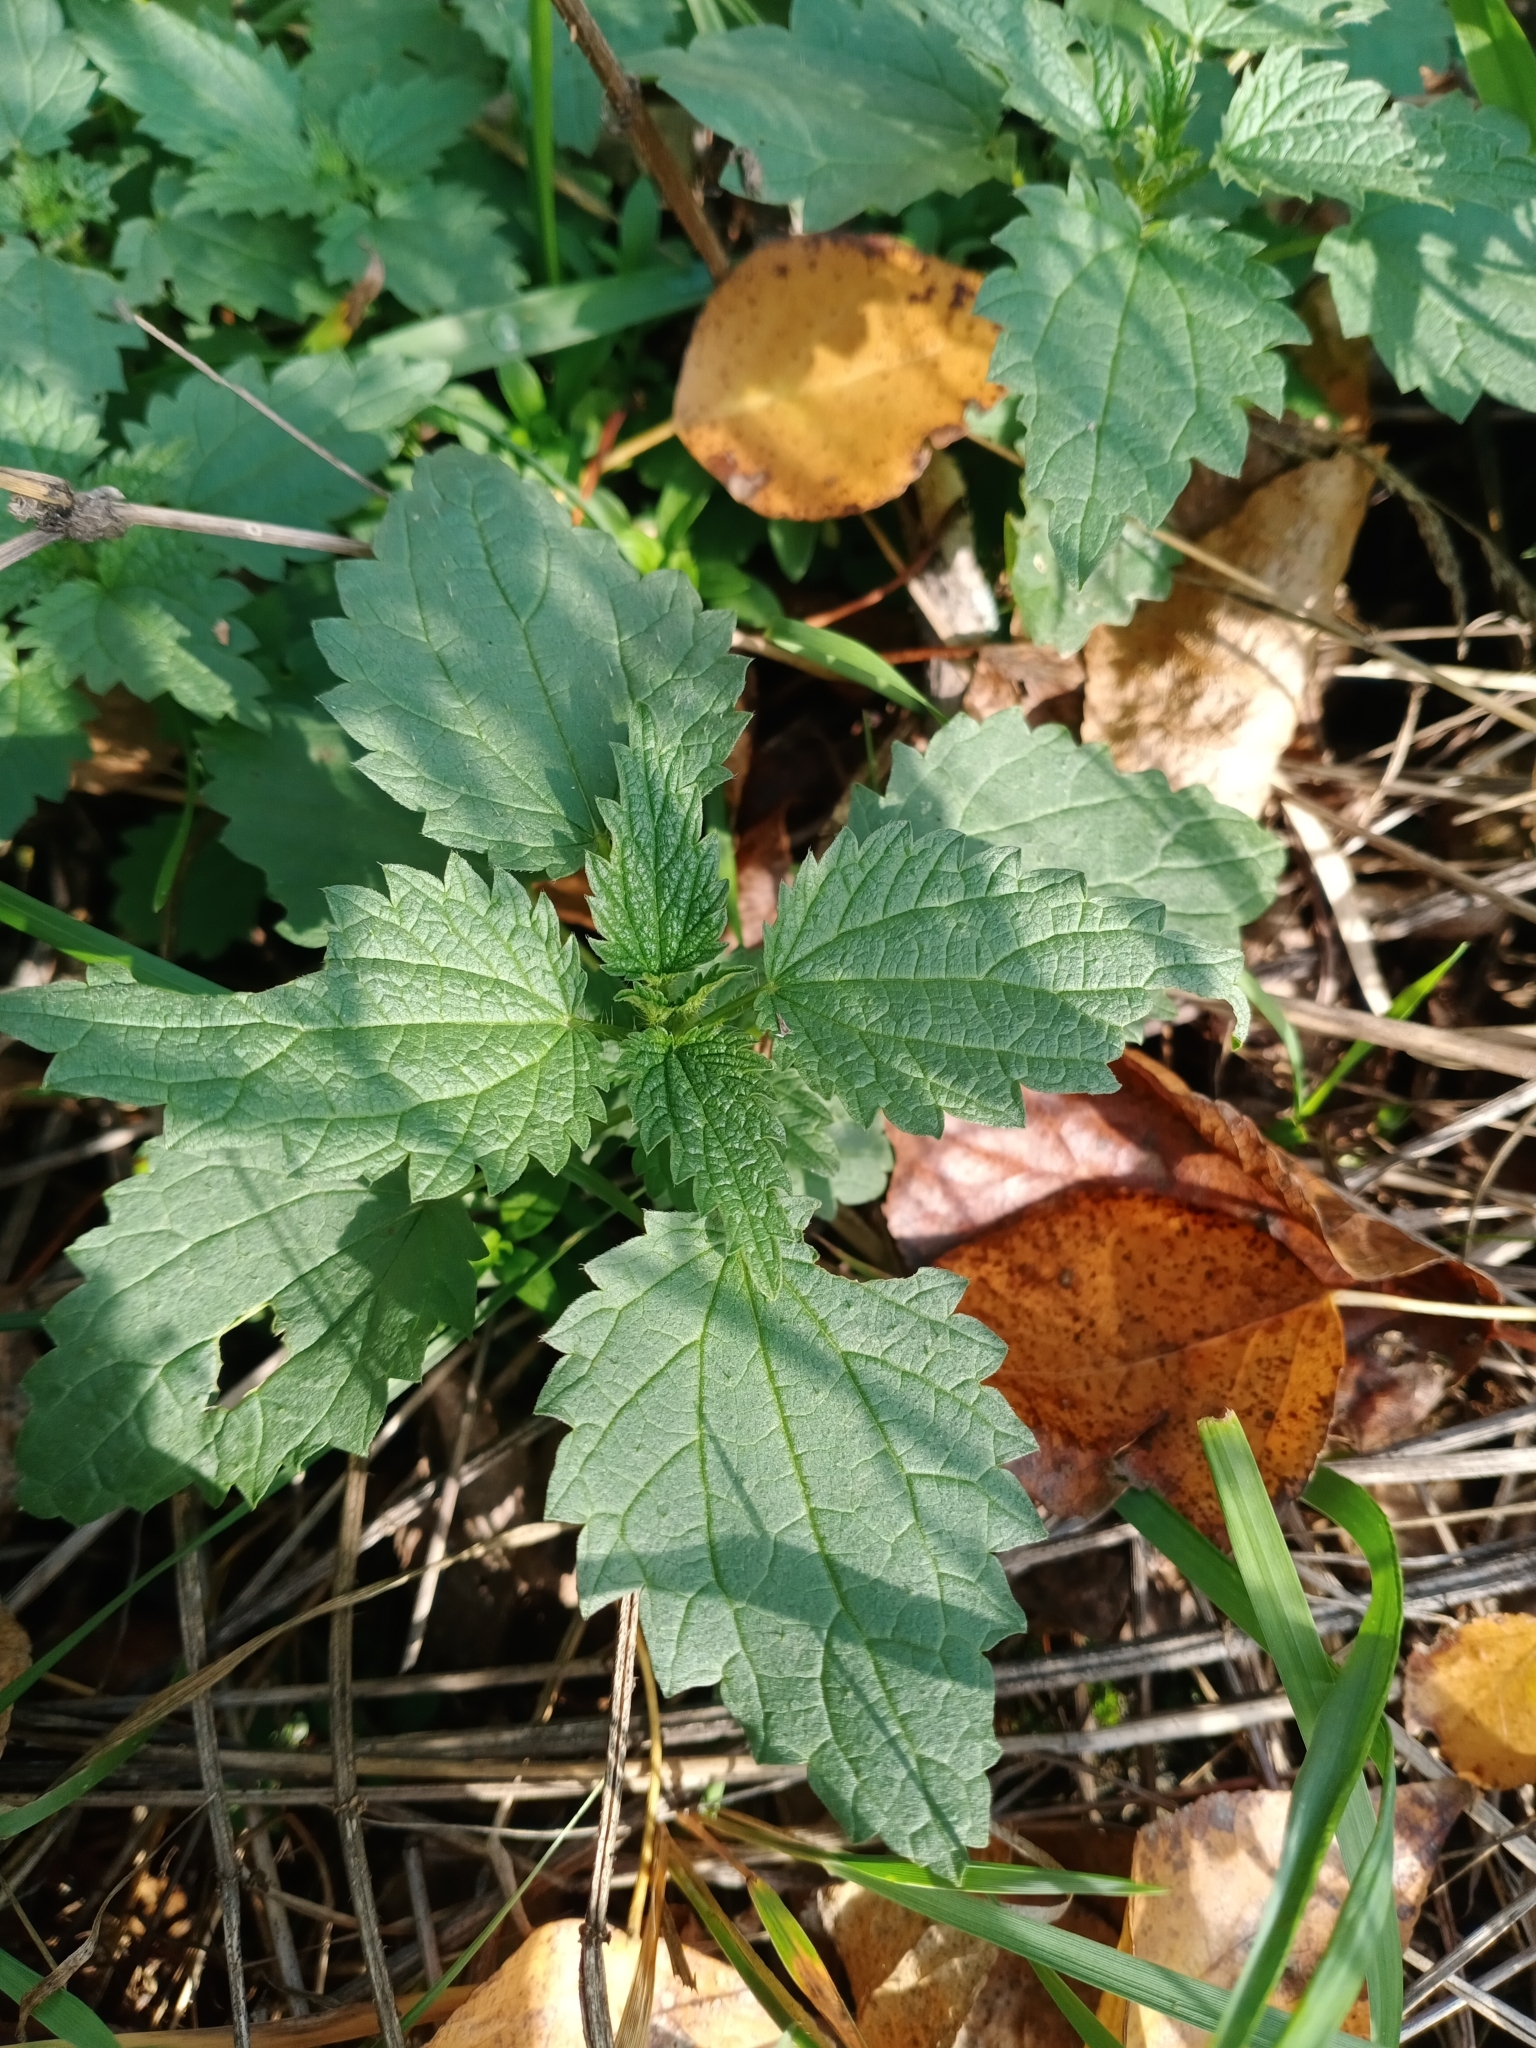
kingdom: Plantae
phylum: Tracheophyta
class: Magnoliopsida
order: Rosales
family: Urticaceae
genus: Urtica
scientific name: Urtica dioica
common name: Common nettle
